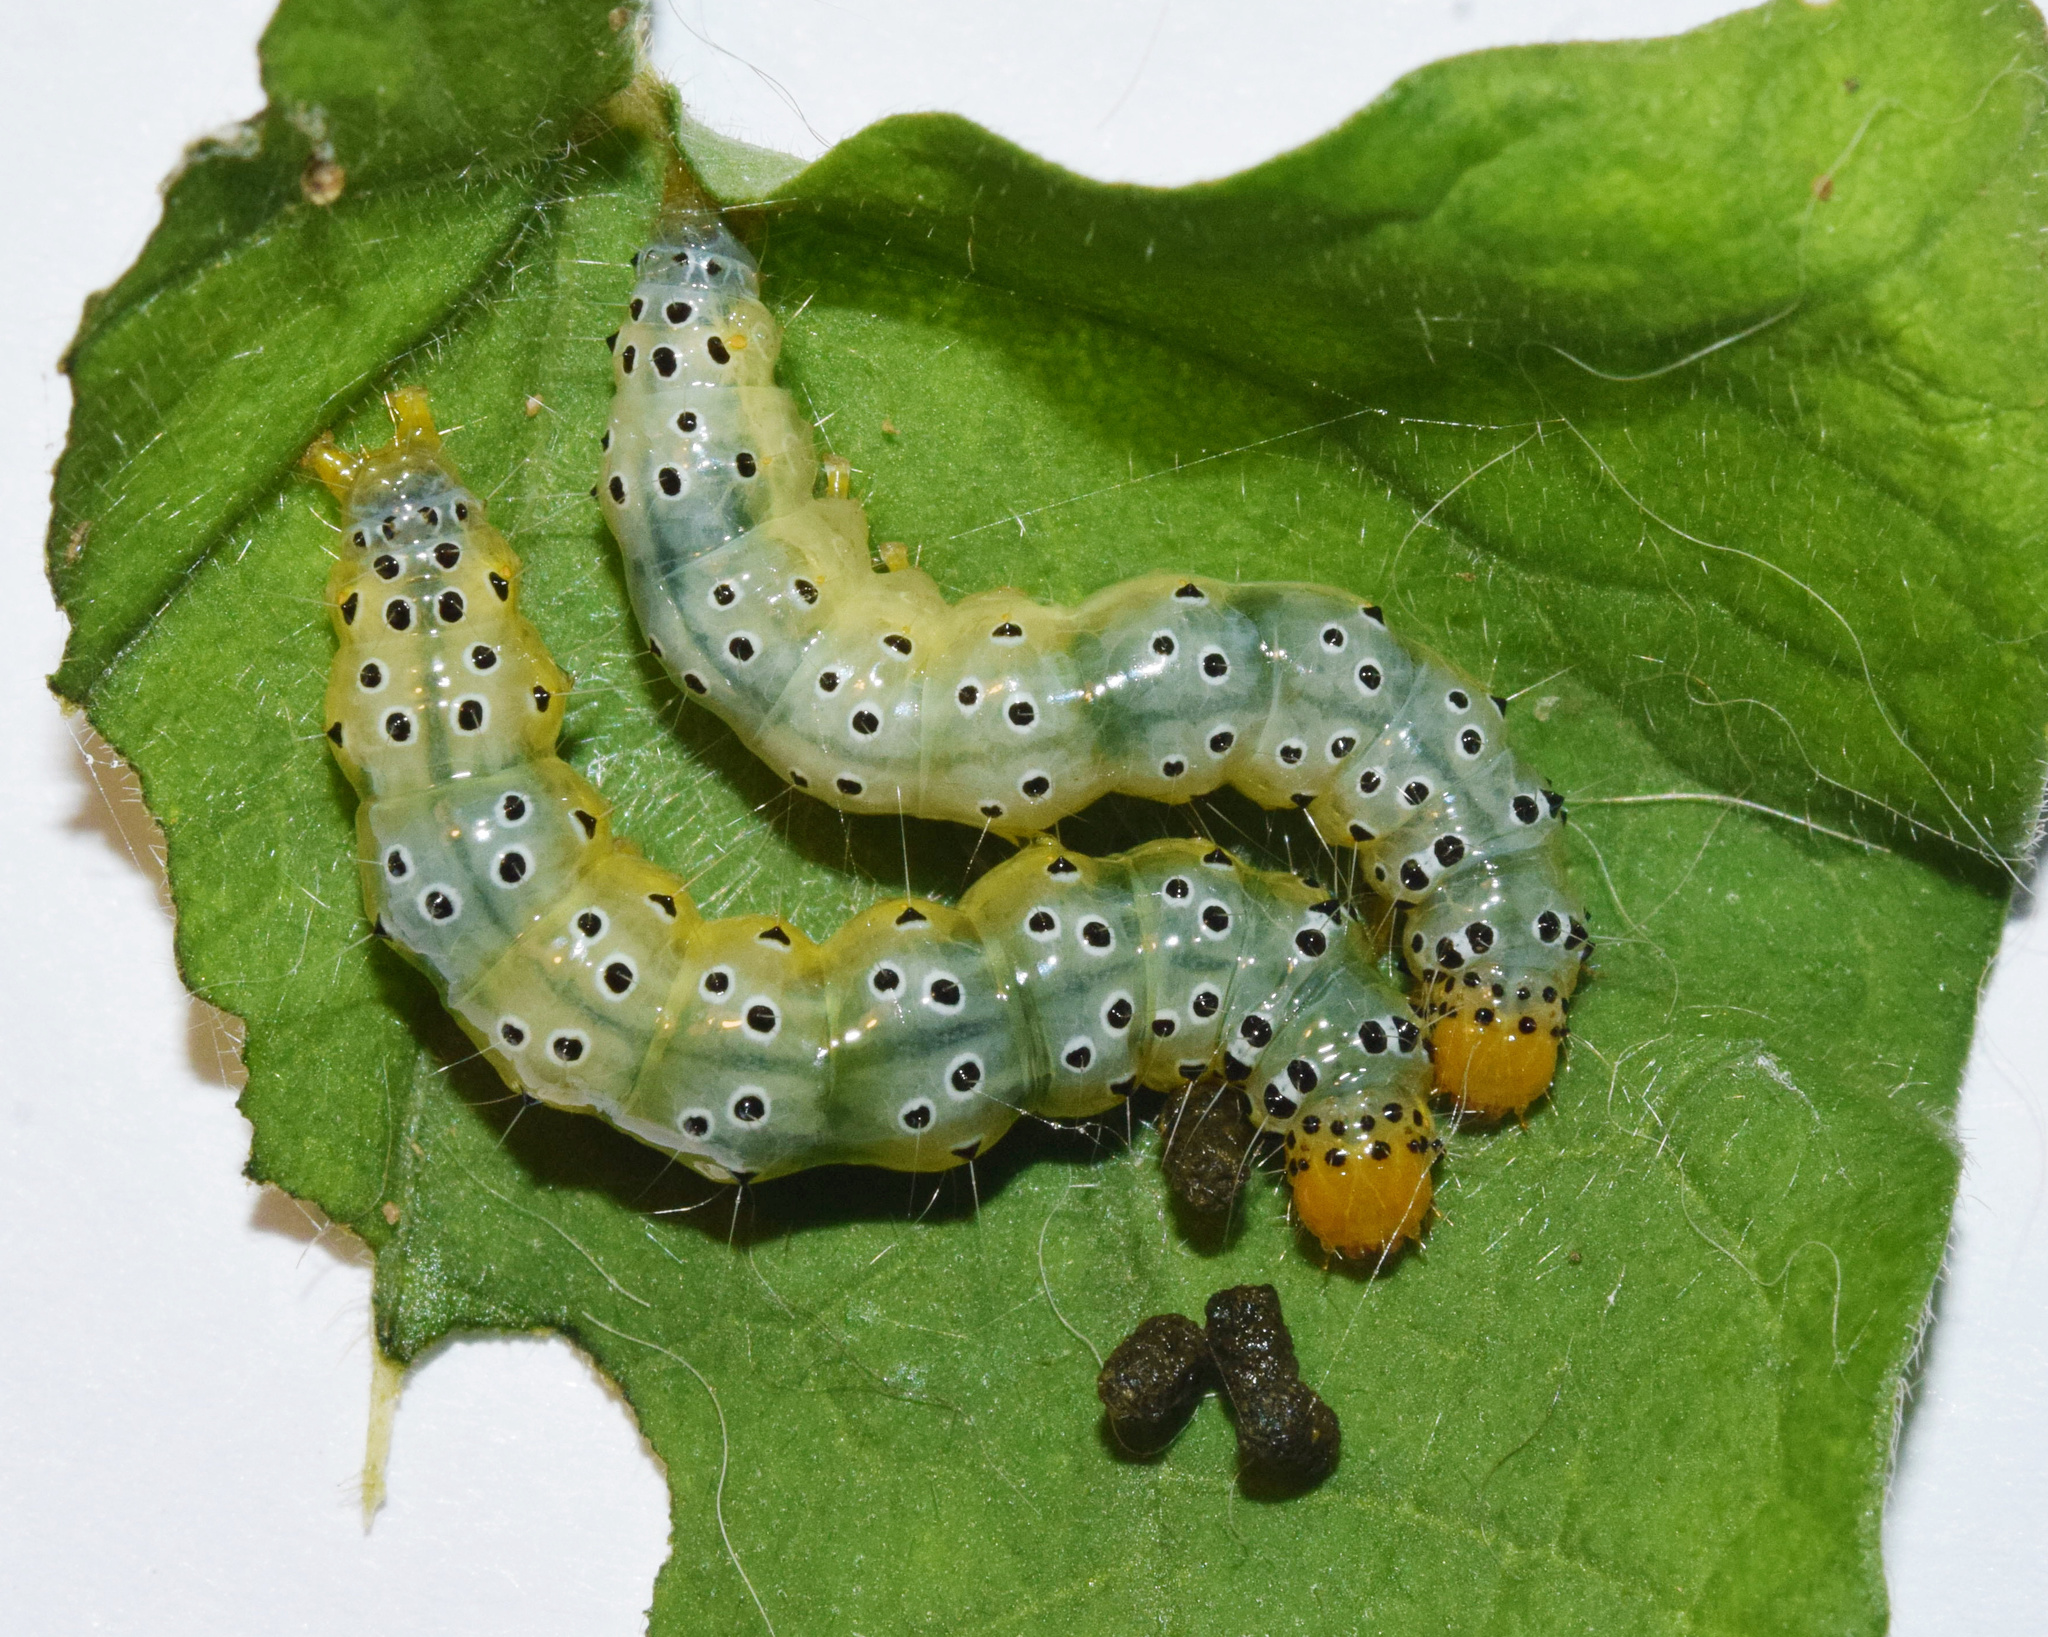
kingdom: Animalia
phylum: Arthropoda
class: Insecta
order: Lepidoptera
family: Crambidae
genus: Filodes
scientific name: Filodes costivitralis
